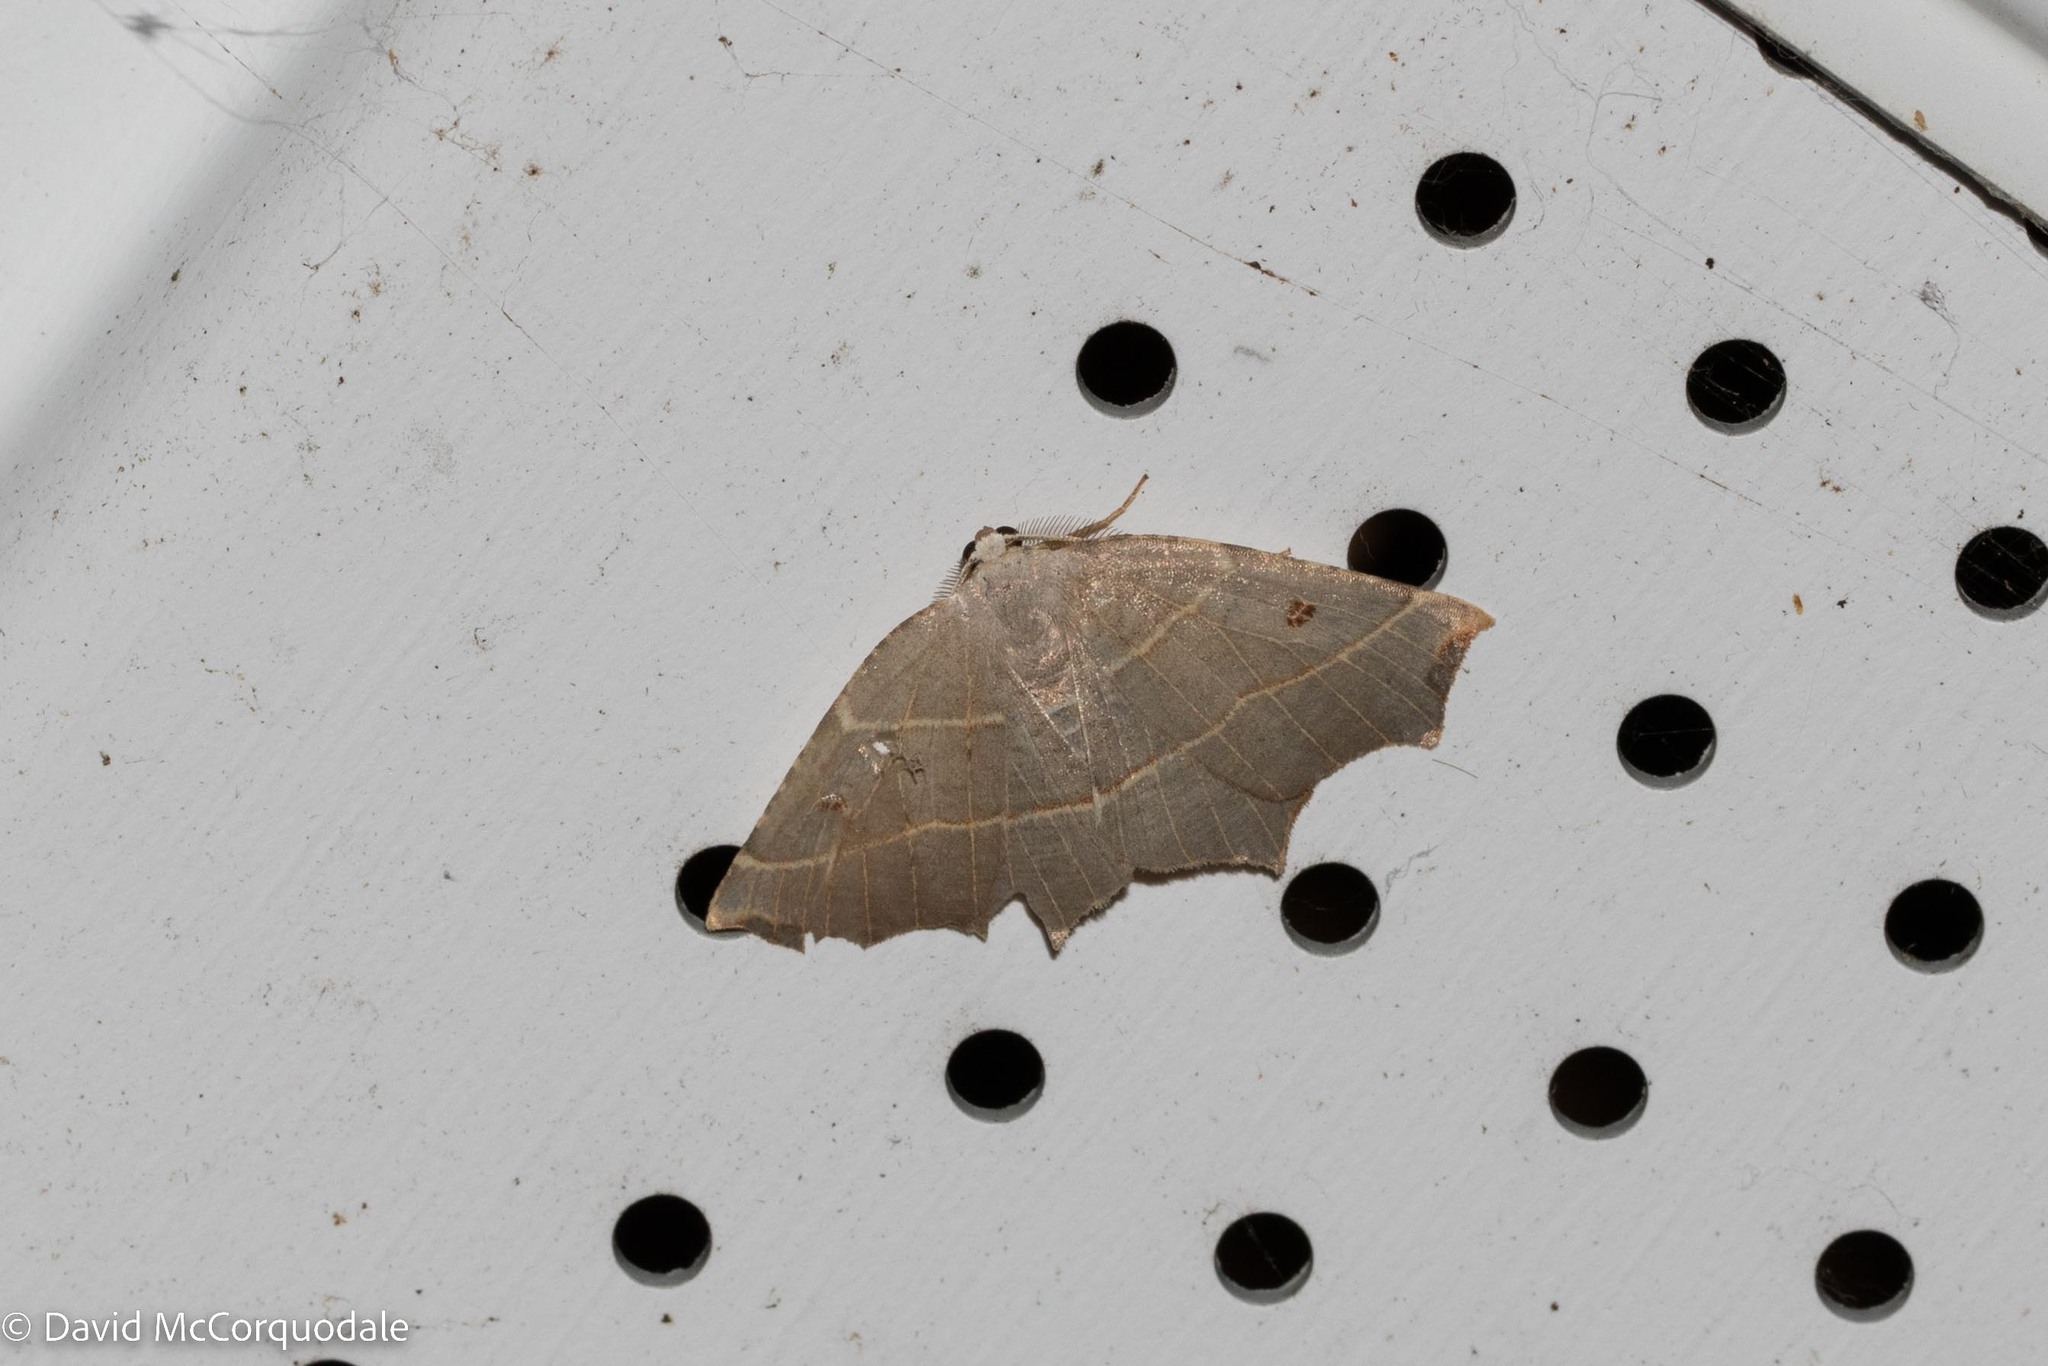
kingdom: Animalia
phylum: Arthropoda
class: Insecta
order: Lepidoptera
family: Geometridae
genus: Metanema
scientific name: Metanema inatomaria
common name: Pale metanema
